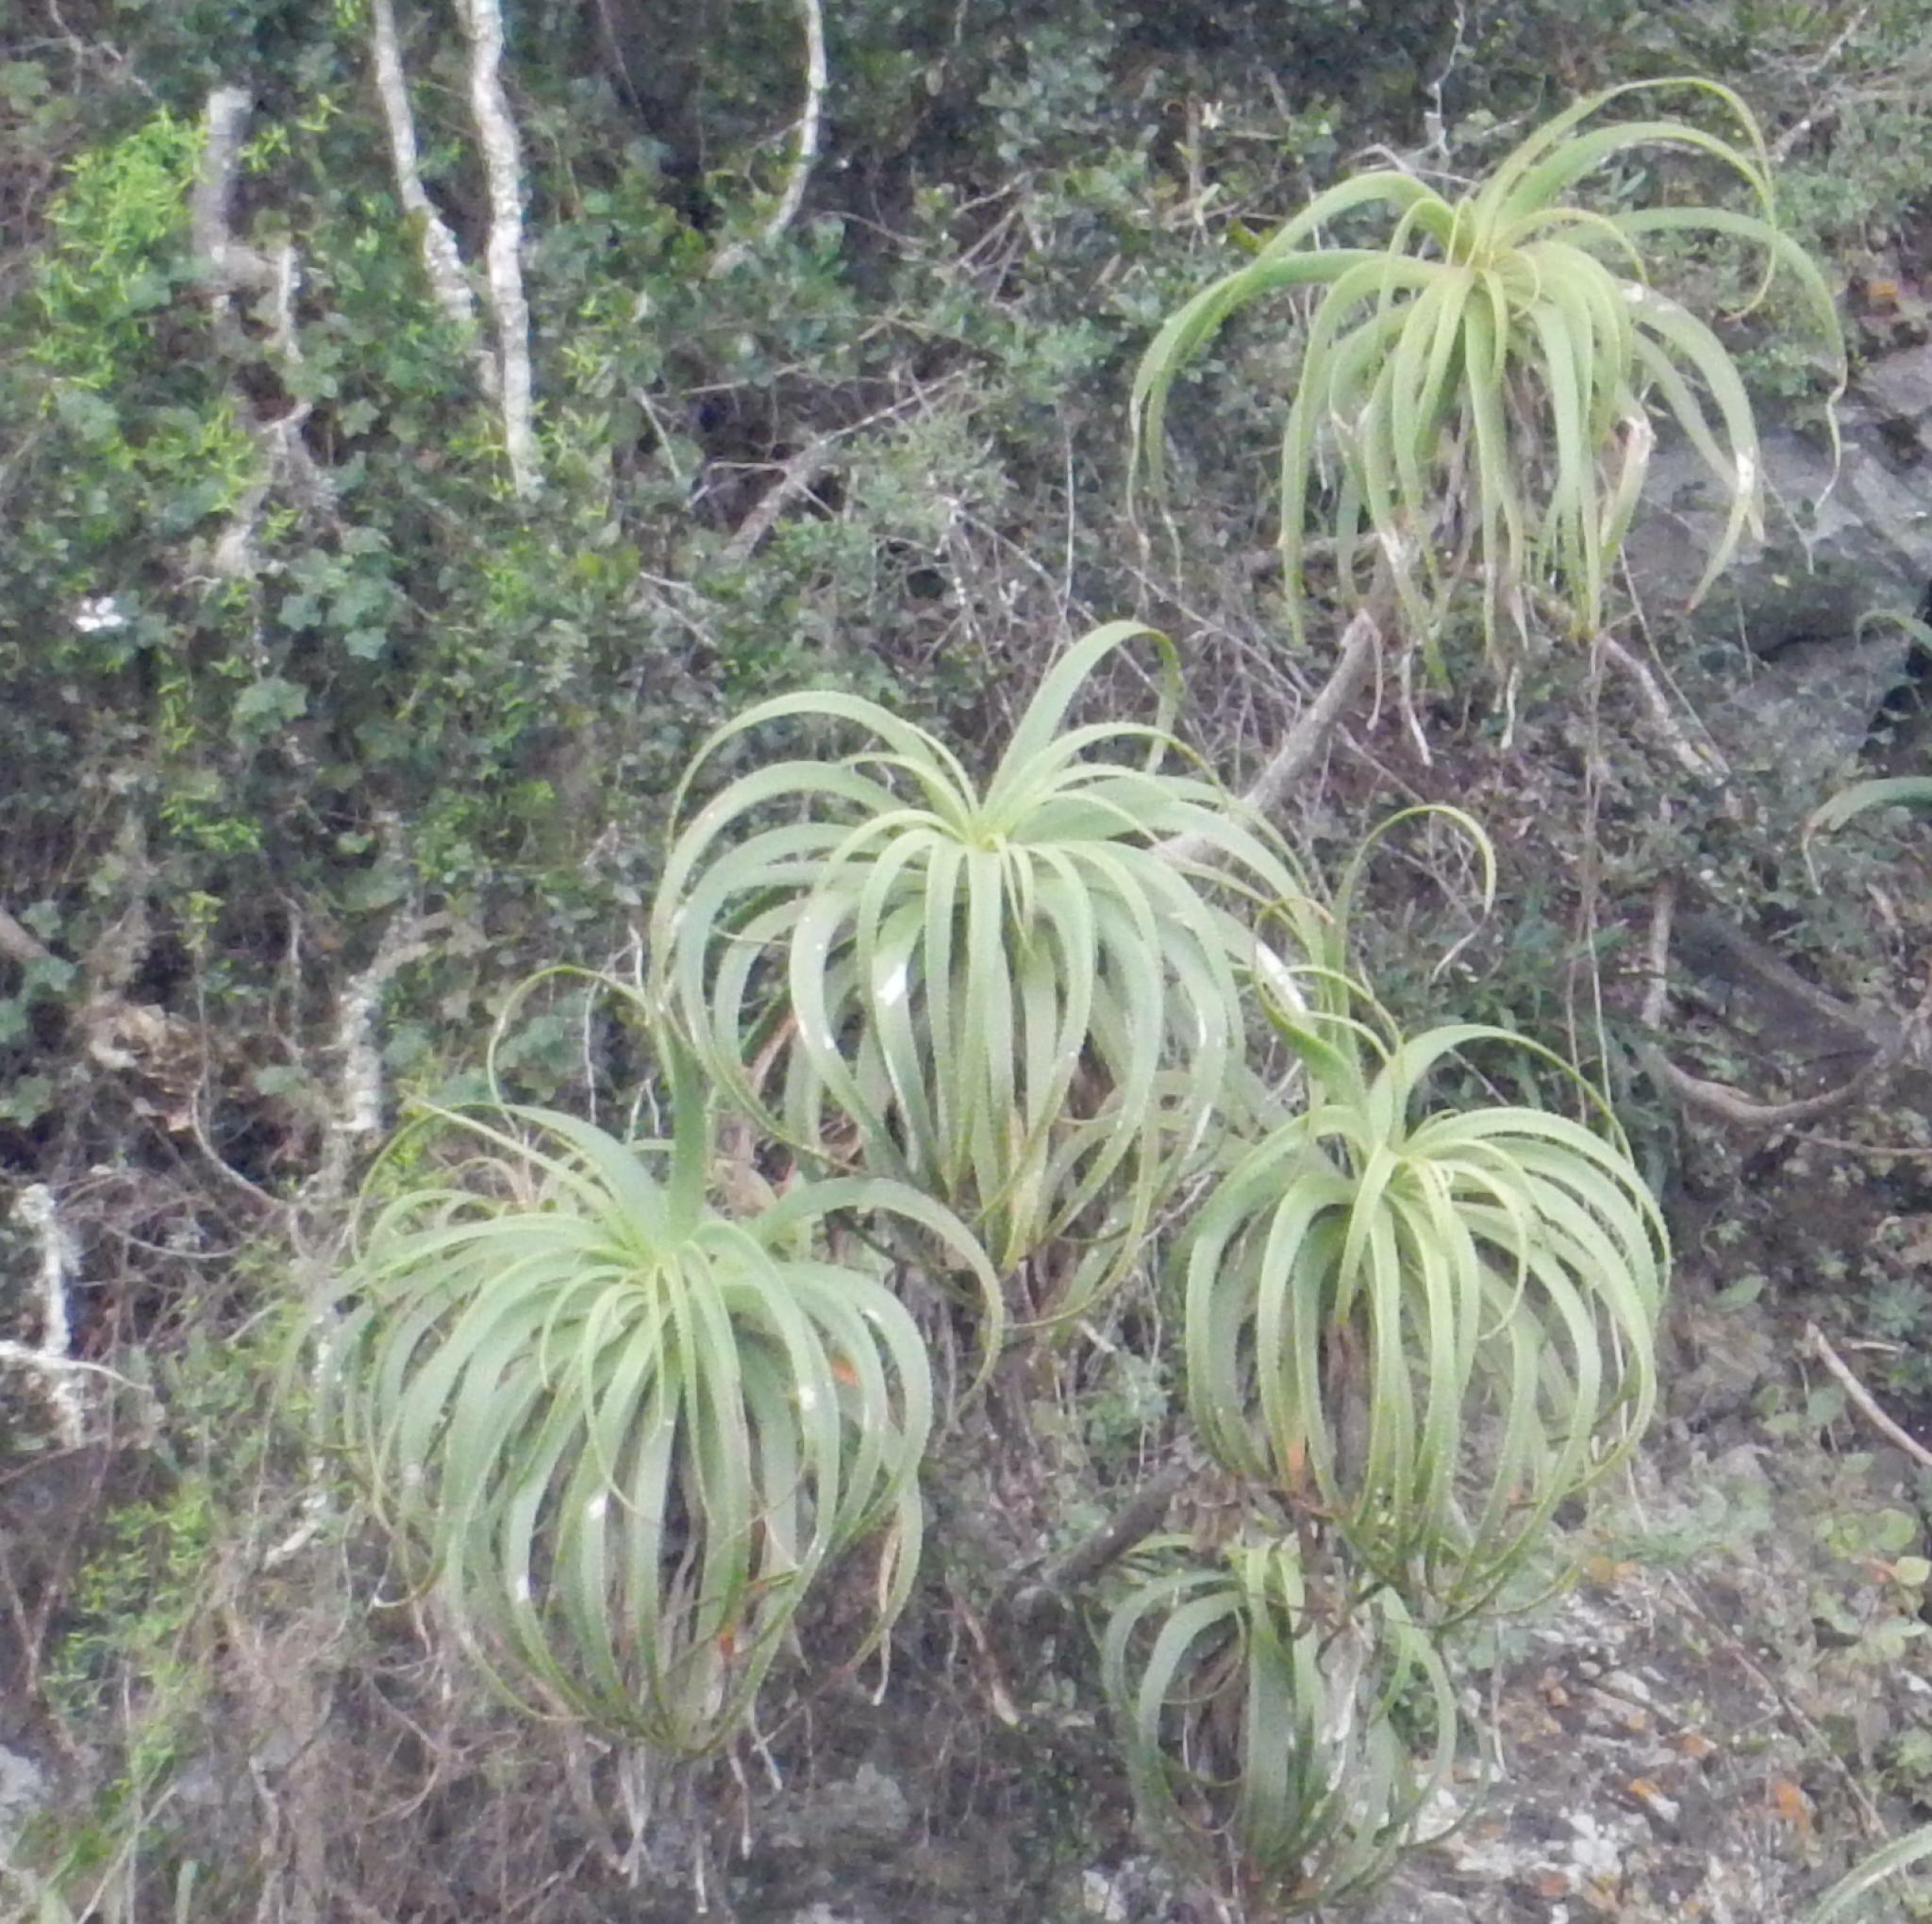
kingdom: Plantae
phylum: Tracheophyta
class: Liliopsida
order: Asparagales
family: Asphodelaceae
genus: Aloe
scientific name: Aloe pluridens
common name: French aloe
